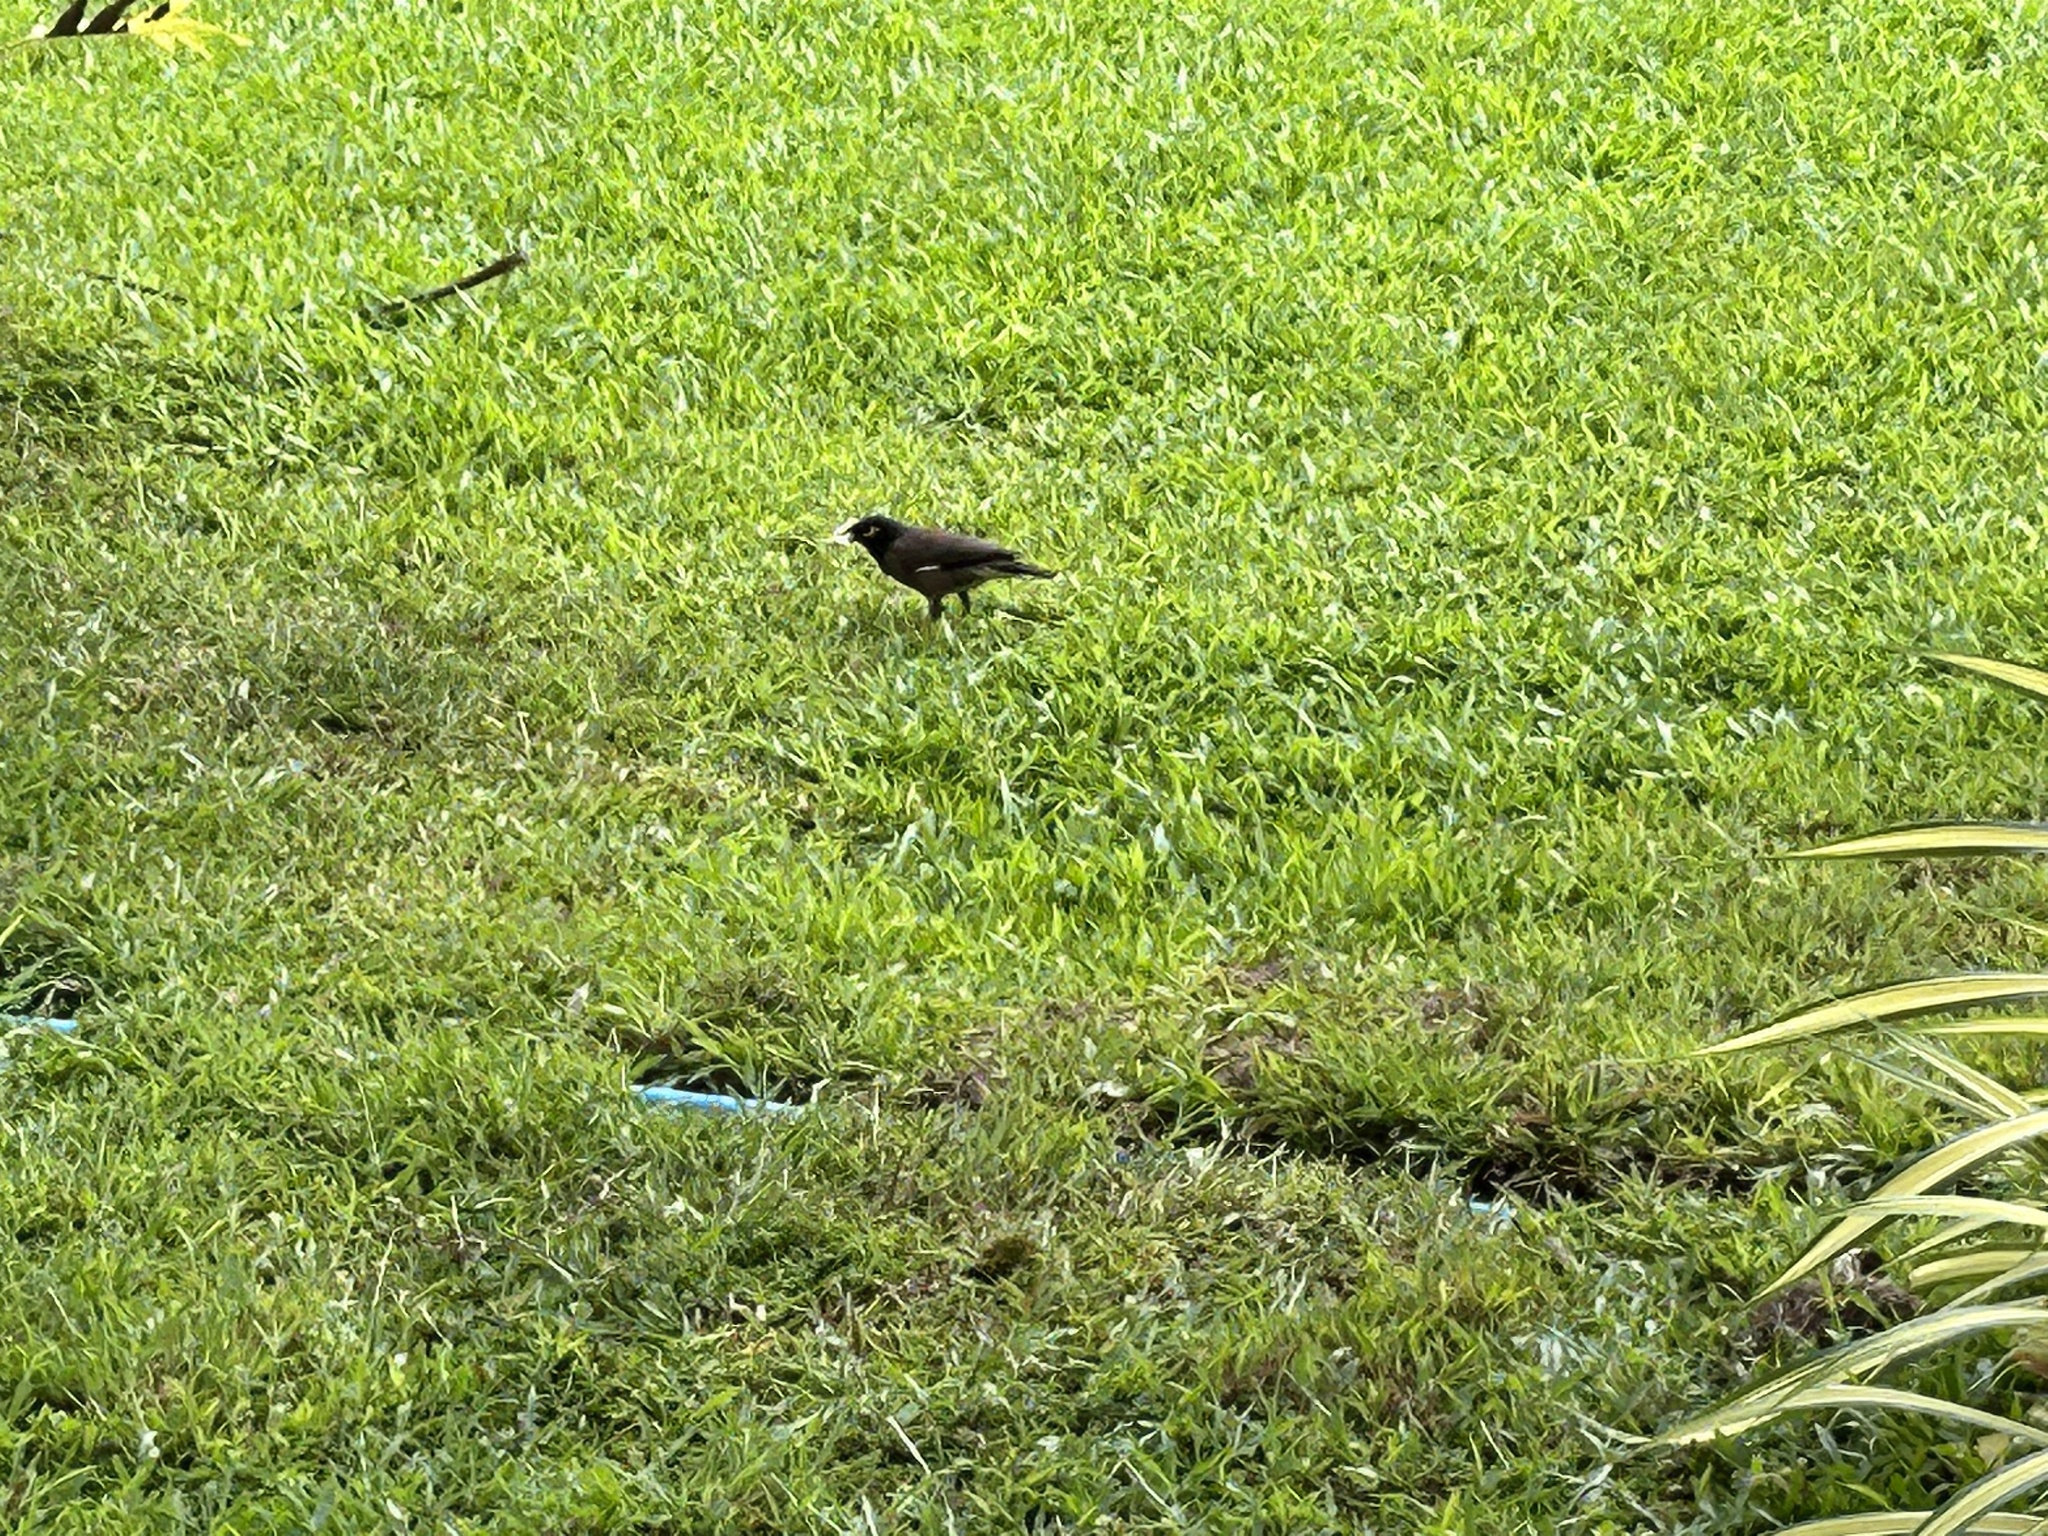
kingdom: Animalia
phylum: Chordata
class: Aves
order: Passeriformes
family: Sturnidae
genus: Acridotheres
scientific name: Acridotheres tristis
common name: Common myna
